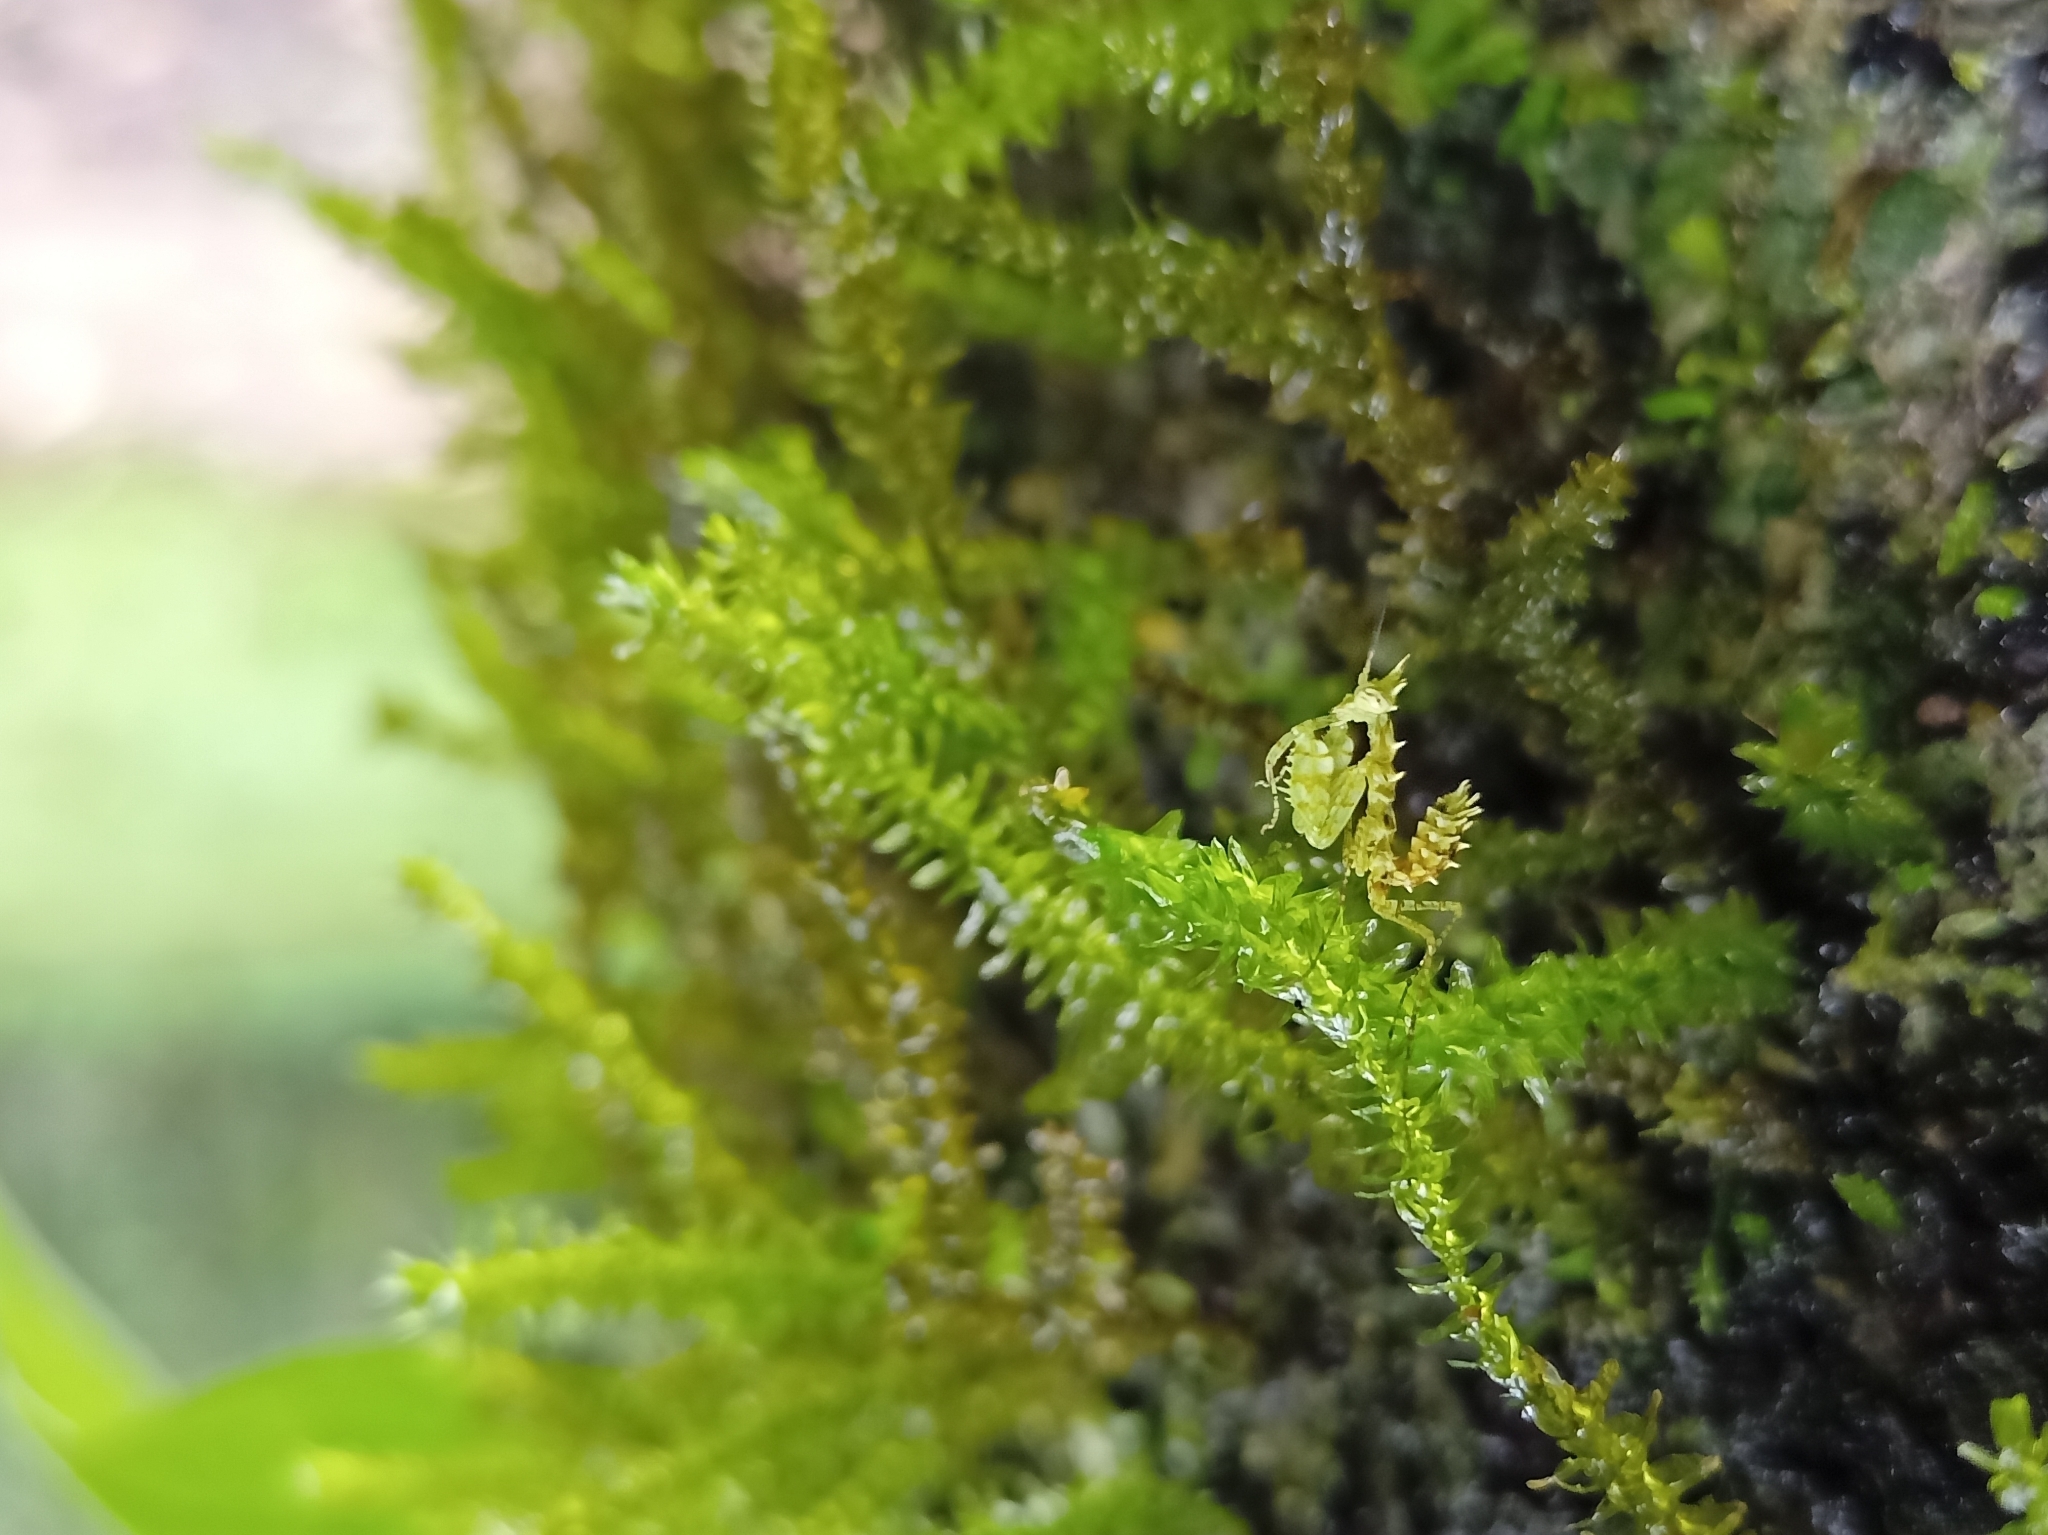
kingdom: Animalia
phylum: Arthropoda
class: Insecta
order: Mantodea
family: Hymenopodidae
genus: Ceratomantis
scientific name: Ceratomantis ghatei
